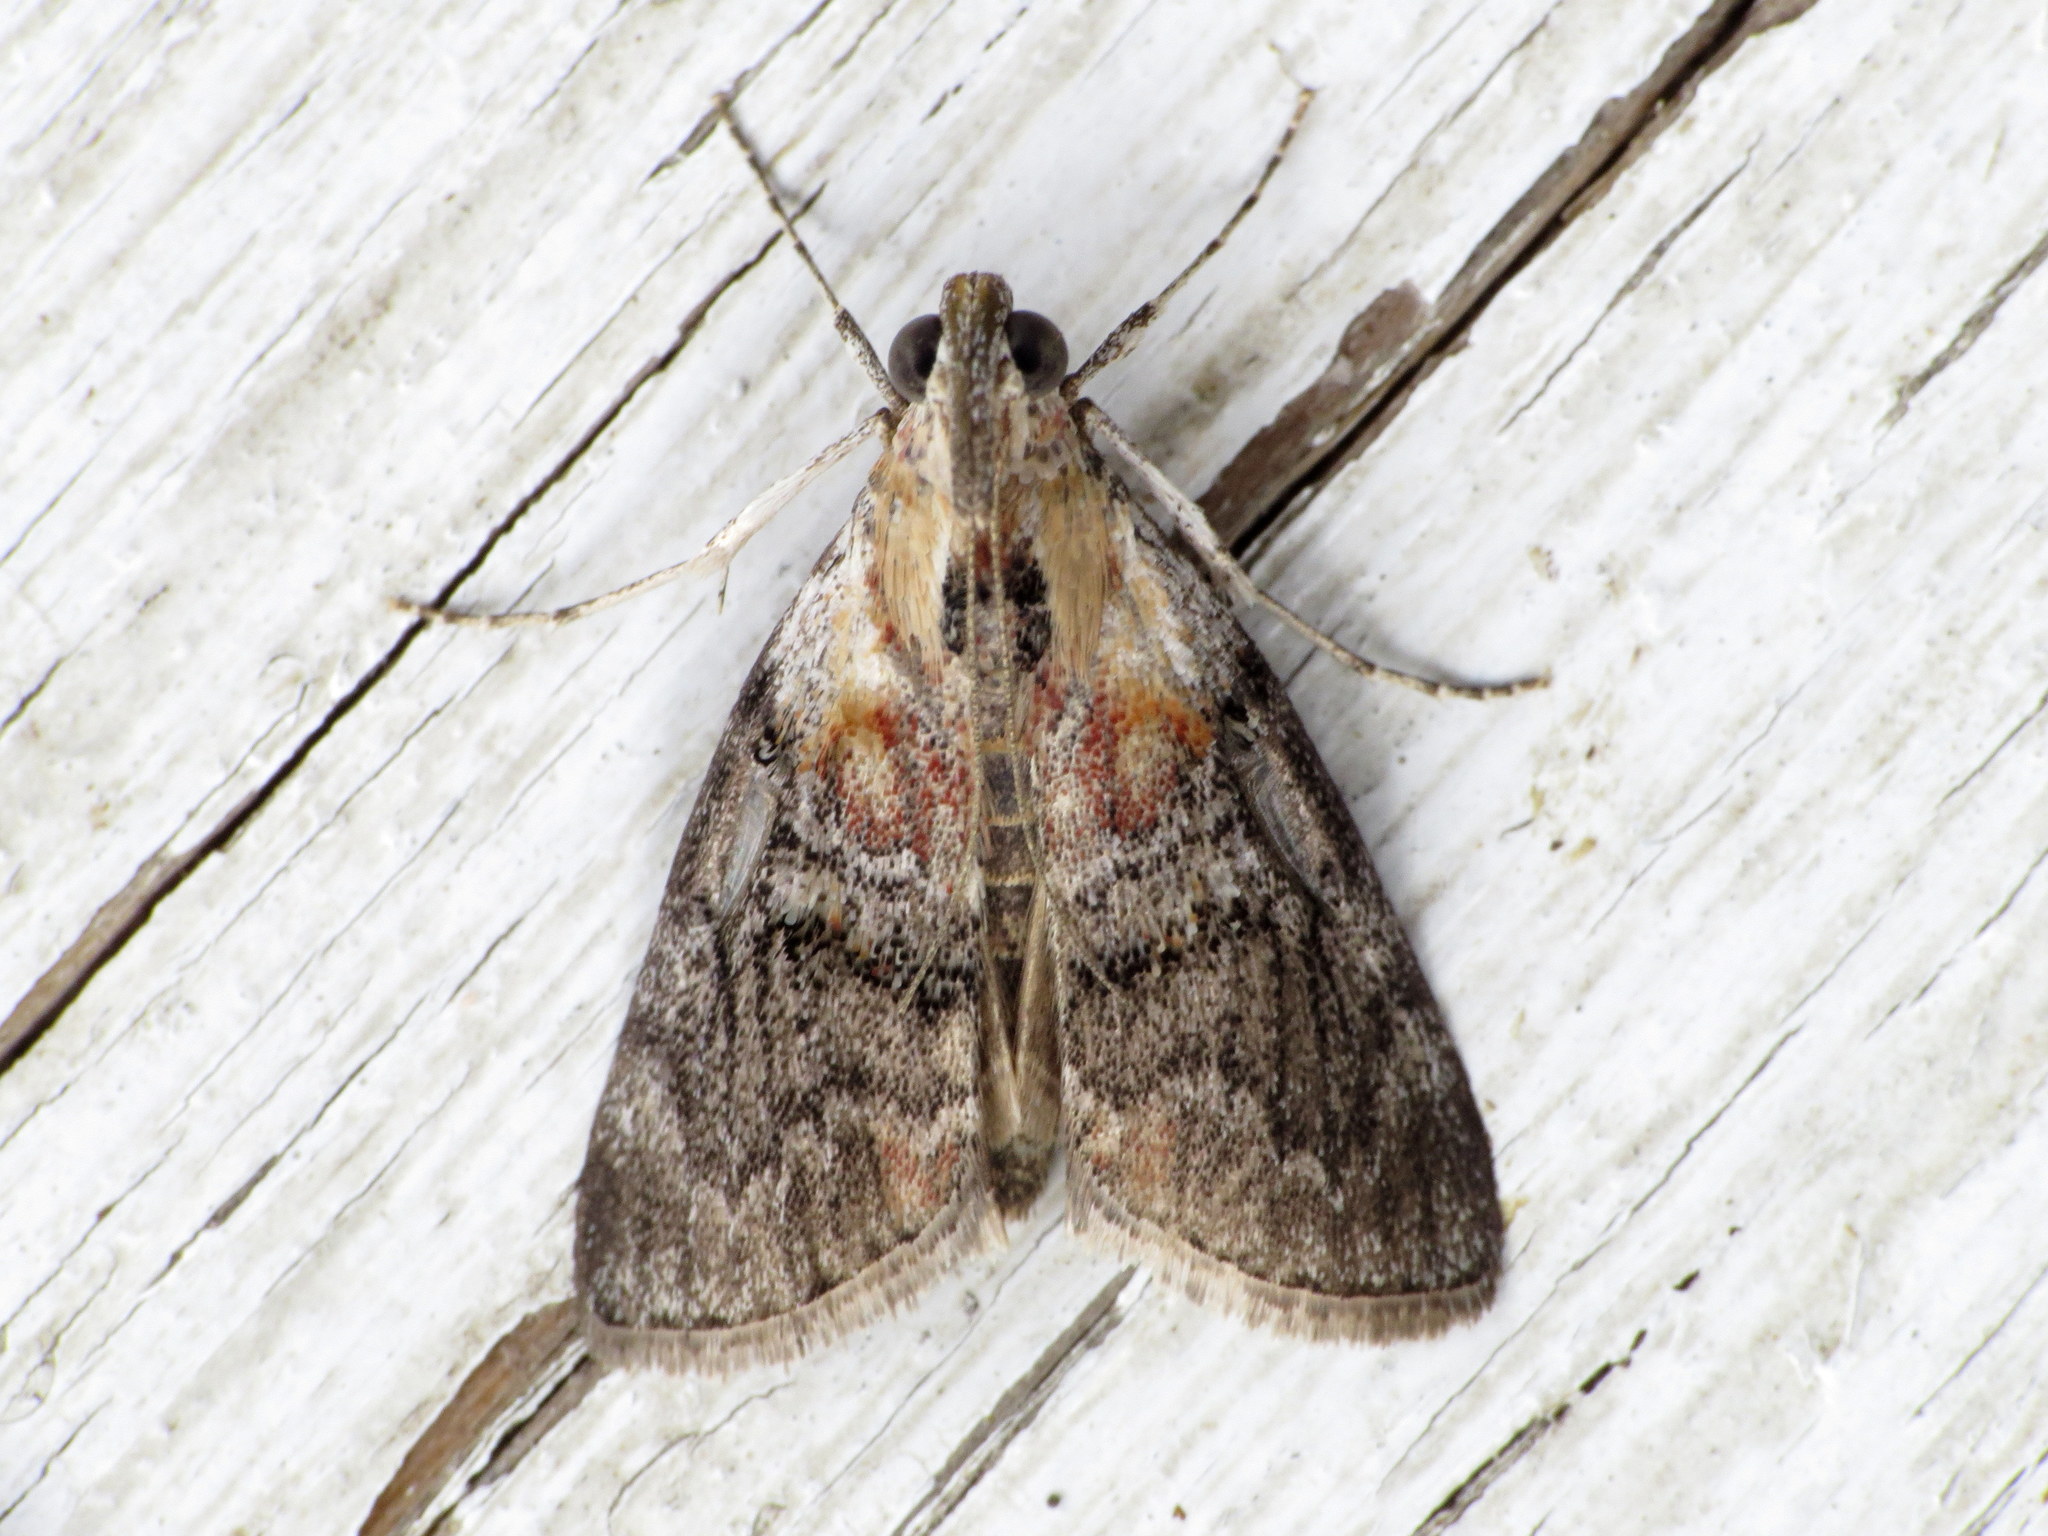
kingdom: Animalia
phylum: Arthropoda
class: Insecta
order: Lepidoptera
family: Pyralidae
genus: Pococera
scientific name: Pococera expandens
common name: Striped oak webworm moth
